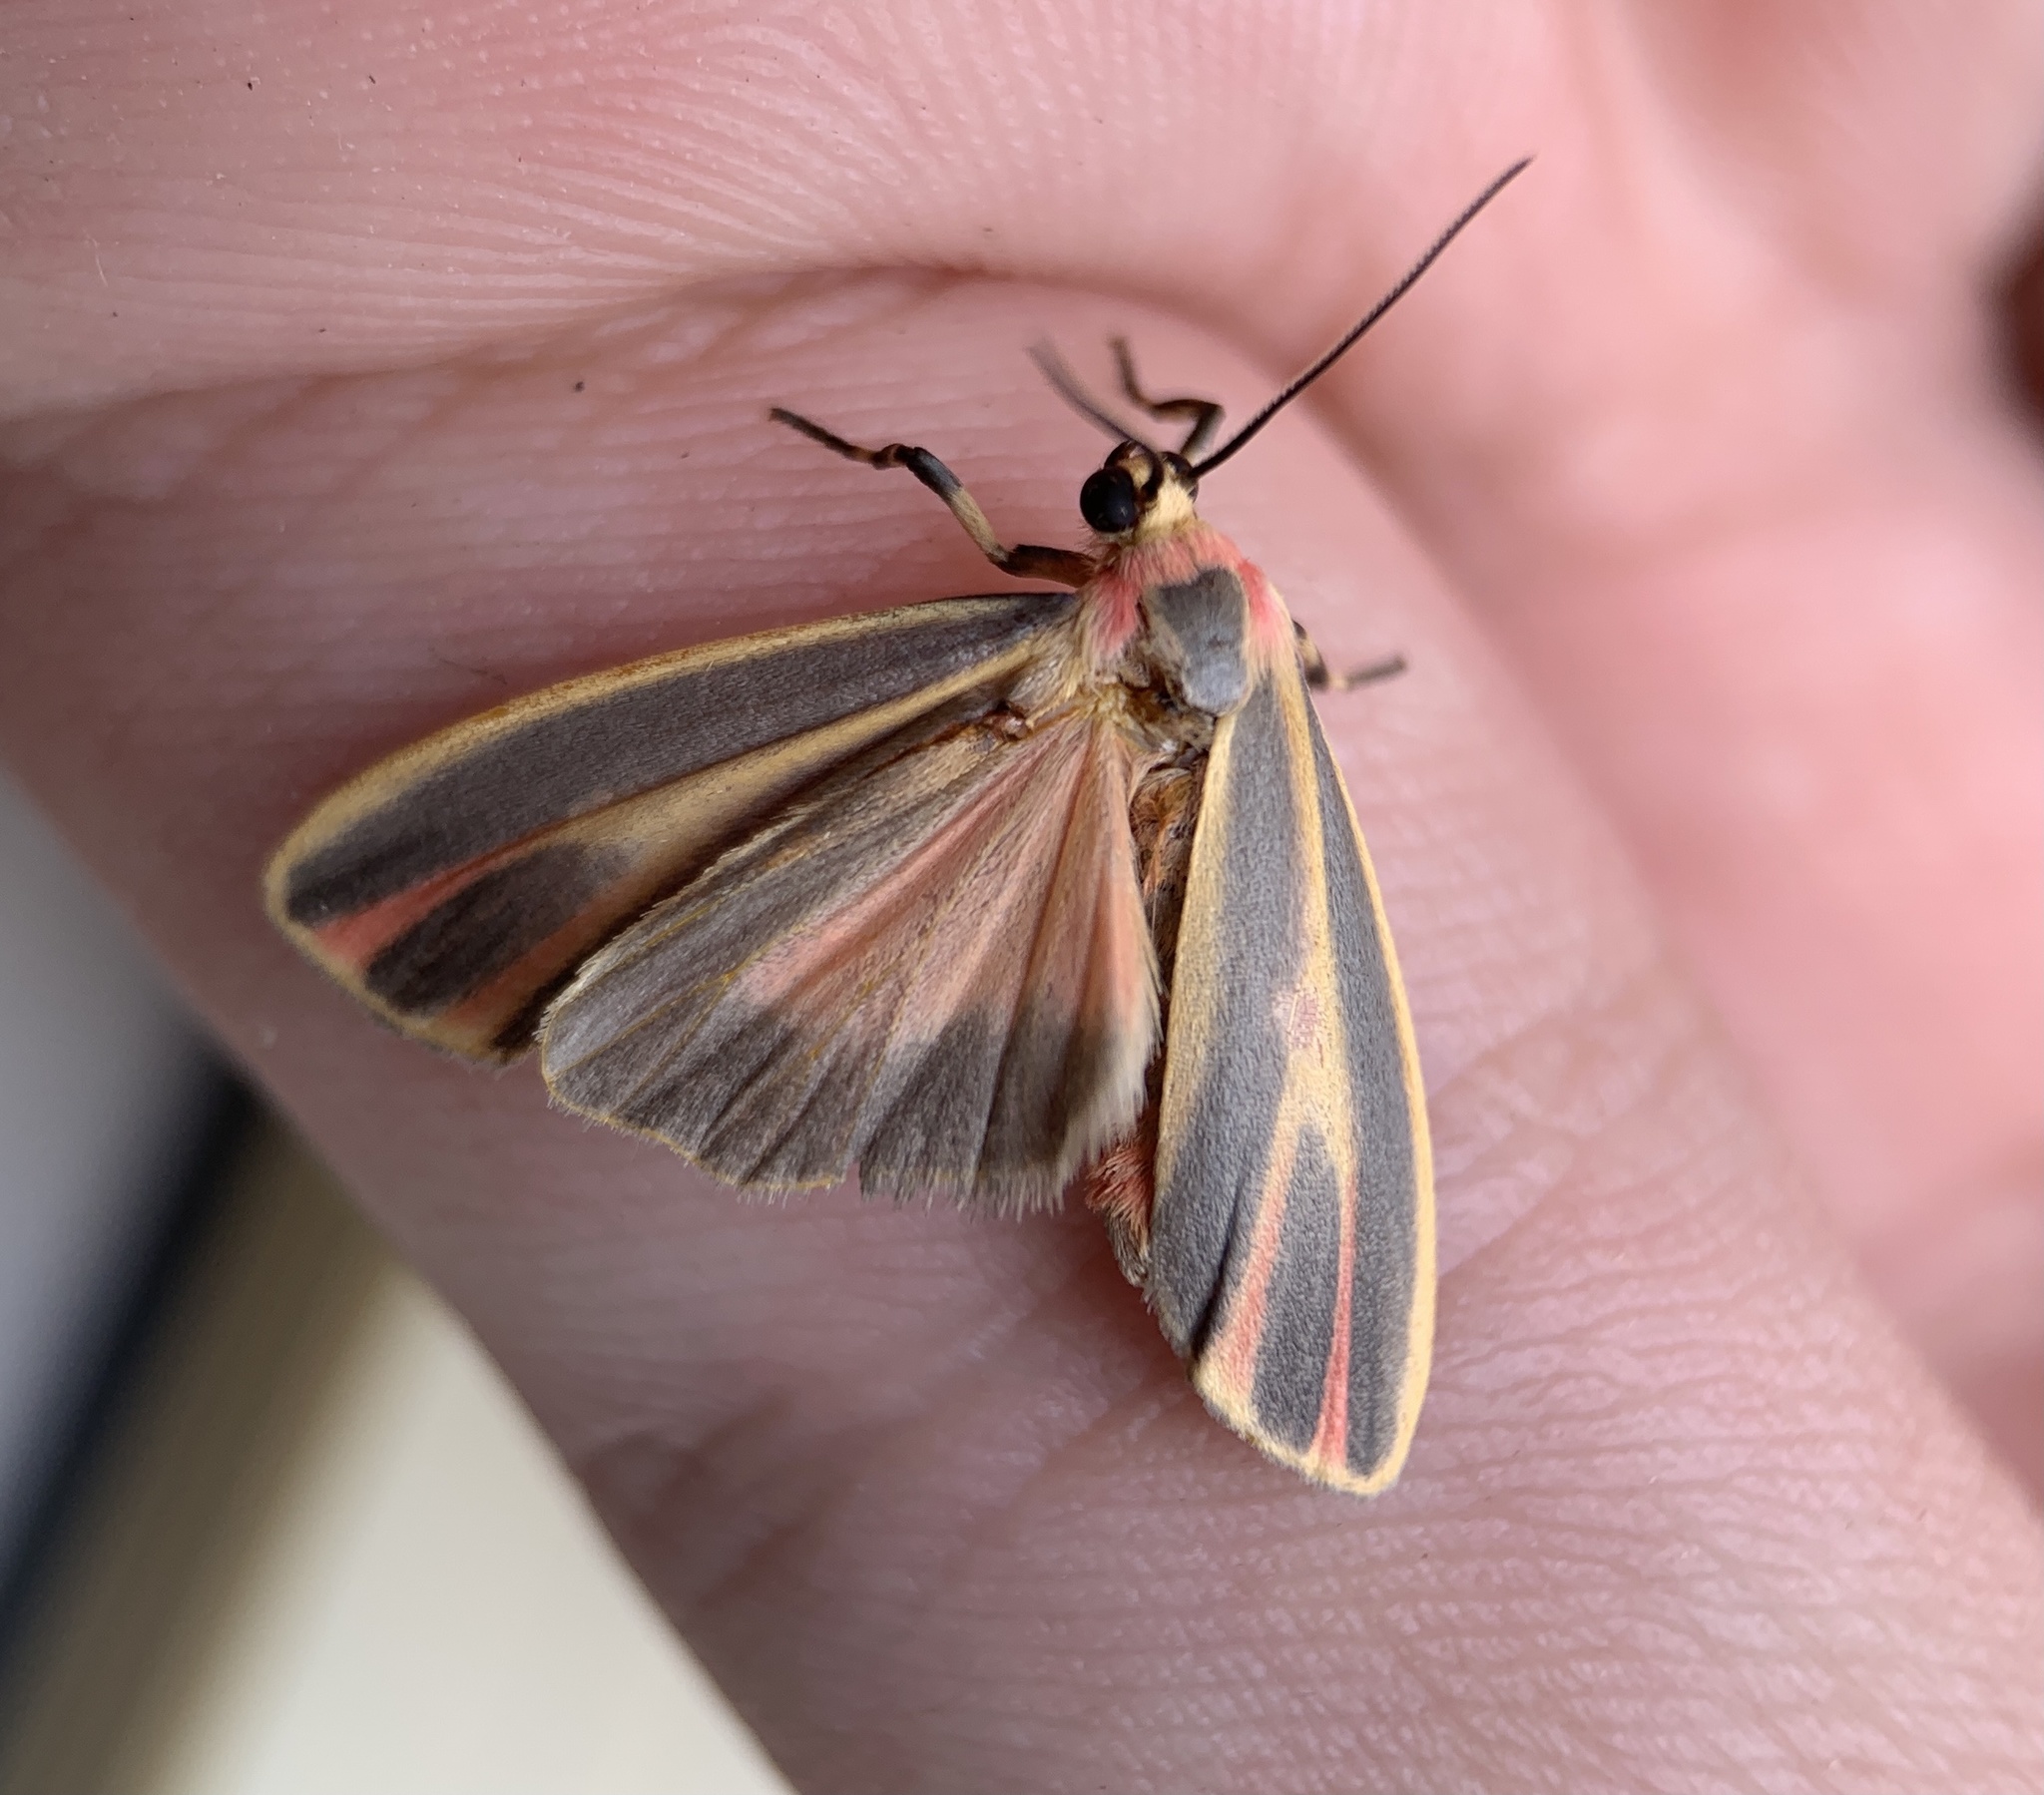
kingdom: Animalia
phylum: Arthropoda
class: Insecta
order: Lepidoptera
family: Erebidae
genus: Hypoprepia
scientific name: Hypoprepia fucosa
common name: Painted lichen moth
